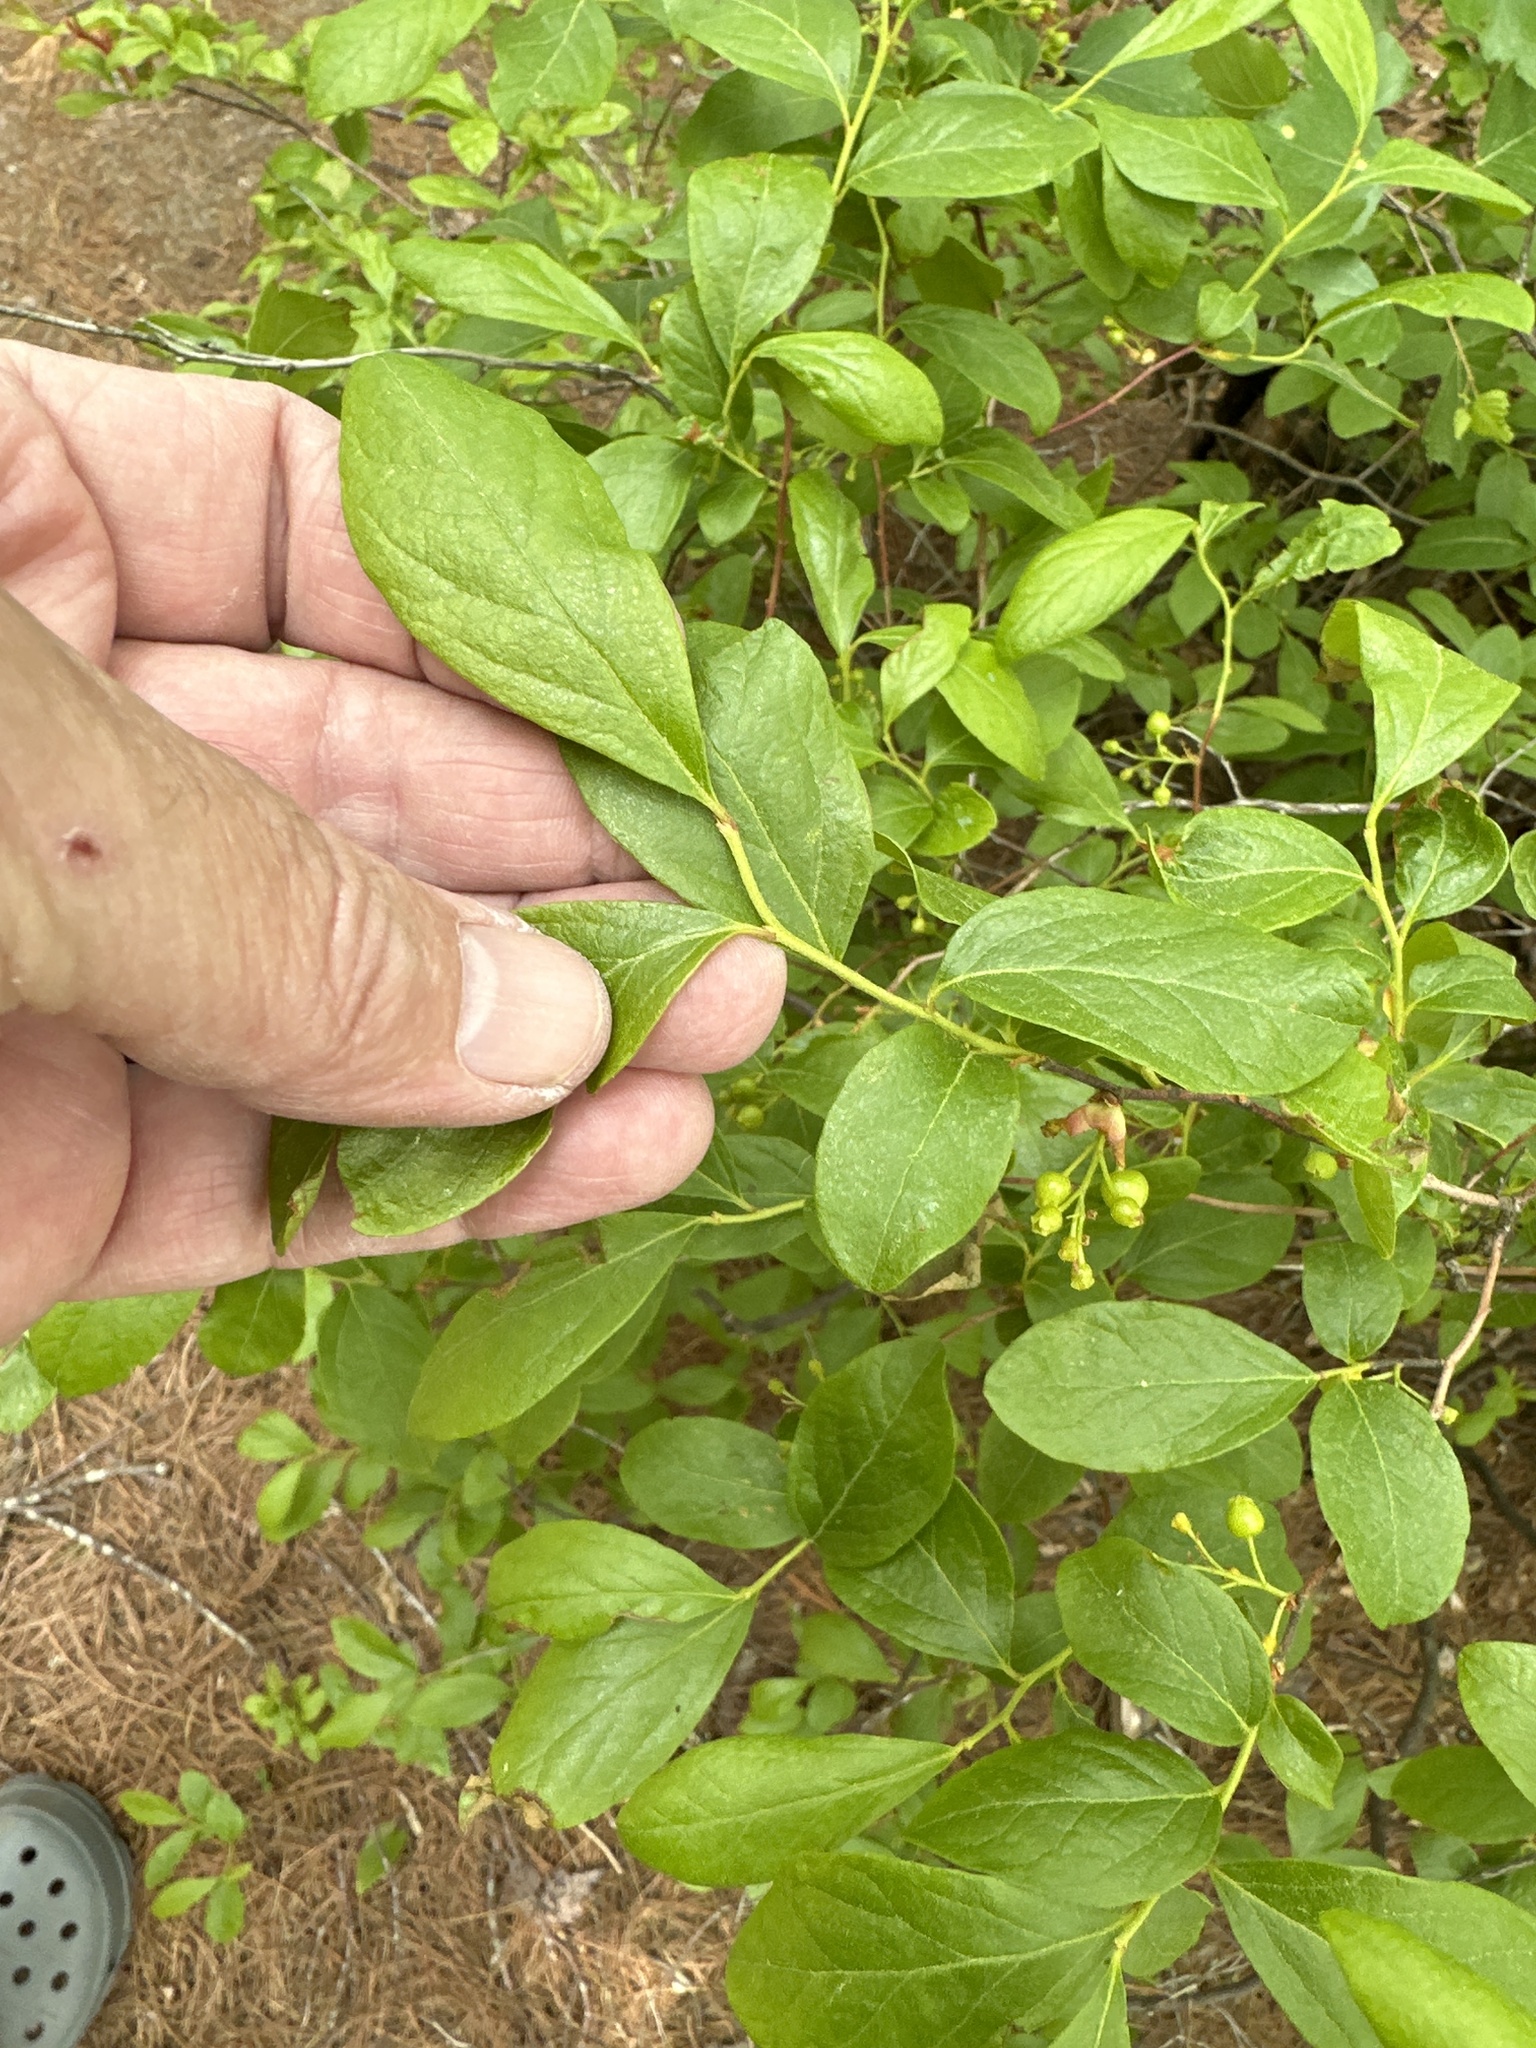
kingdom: Plantae
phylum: Tracheophyta
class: Magnoliopsida
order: Ericales
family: Ericaceae
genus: Gaylussacia
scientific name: Gaylussacia baccata
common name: Black huckleberry
